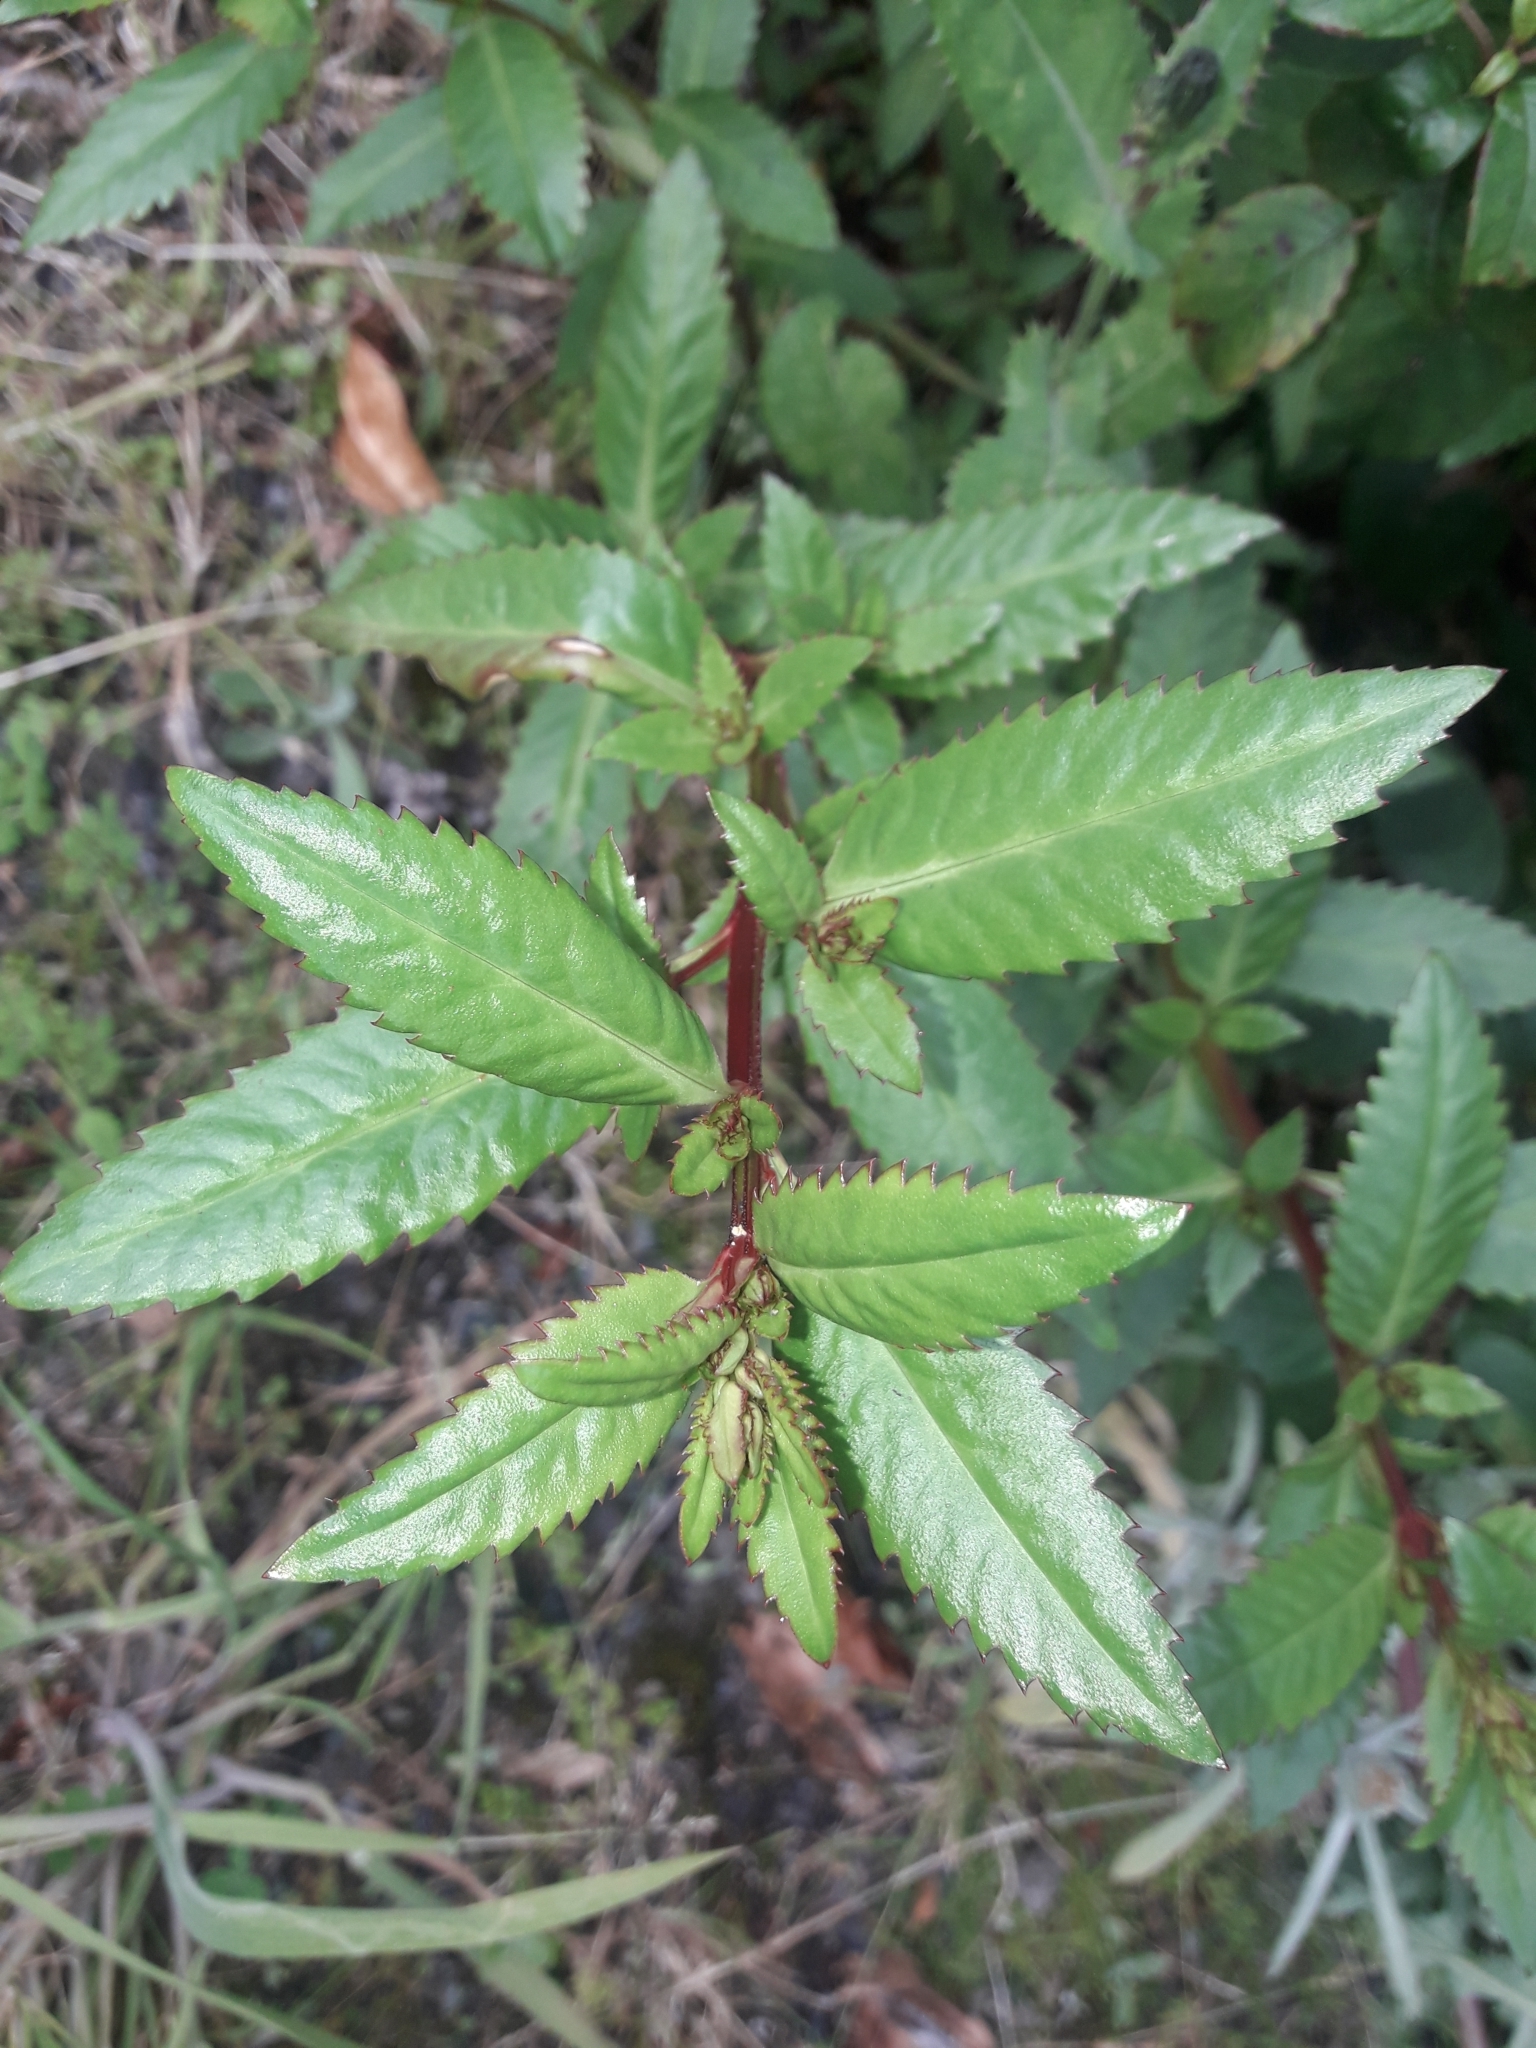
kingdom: Plantae
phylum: Tracheophyta
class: Magnoliopsida
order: Saxifragales
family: Haloragaceae
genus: Haloragis
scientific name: Haloragis erecta
